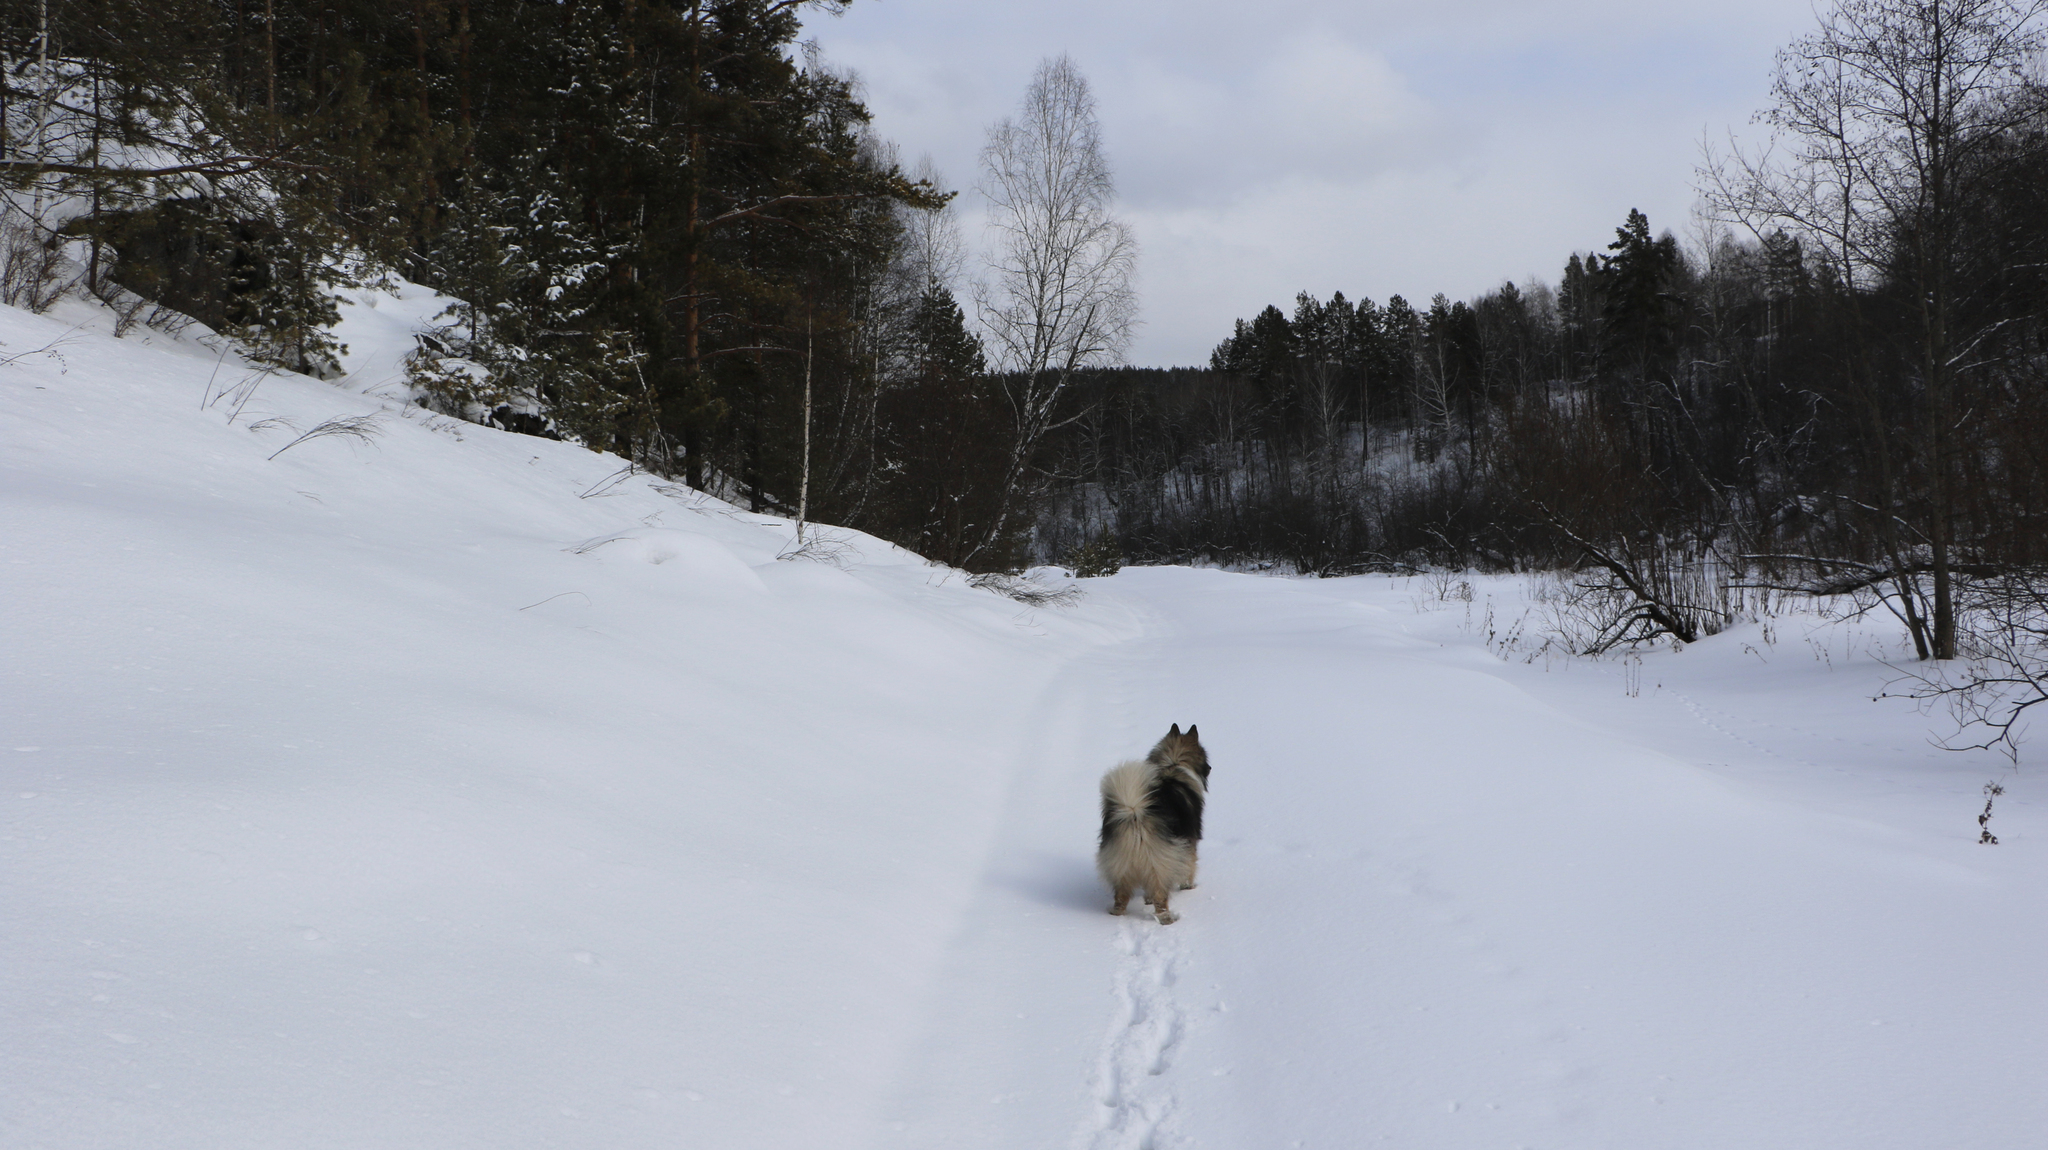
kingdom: Plantae
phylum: Tracheophyta
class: Pinopsida
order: Pinales
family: Pinaceae
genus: Pinus
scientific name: Pinus sylvestris
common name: Scots pine
